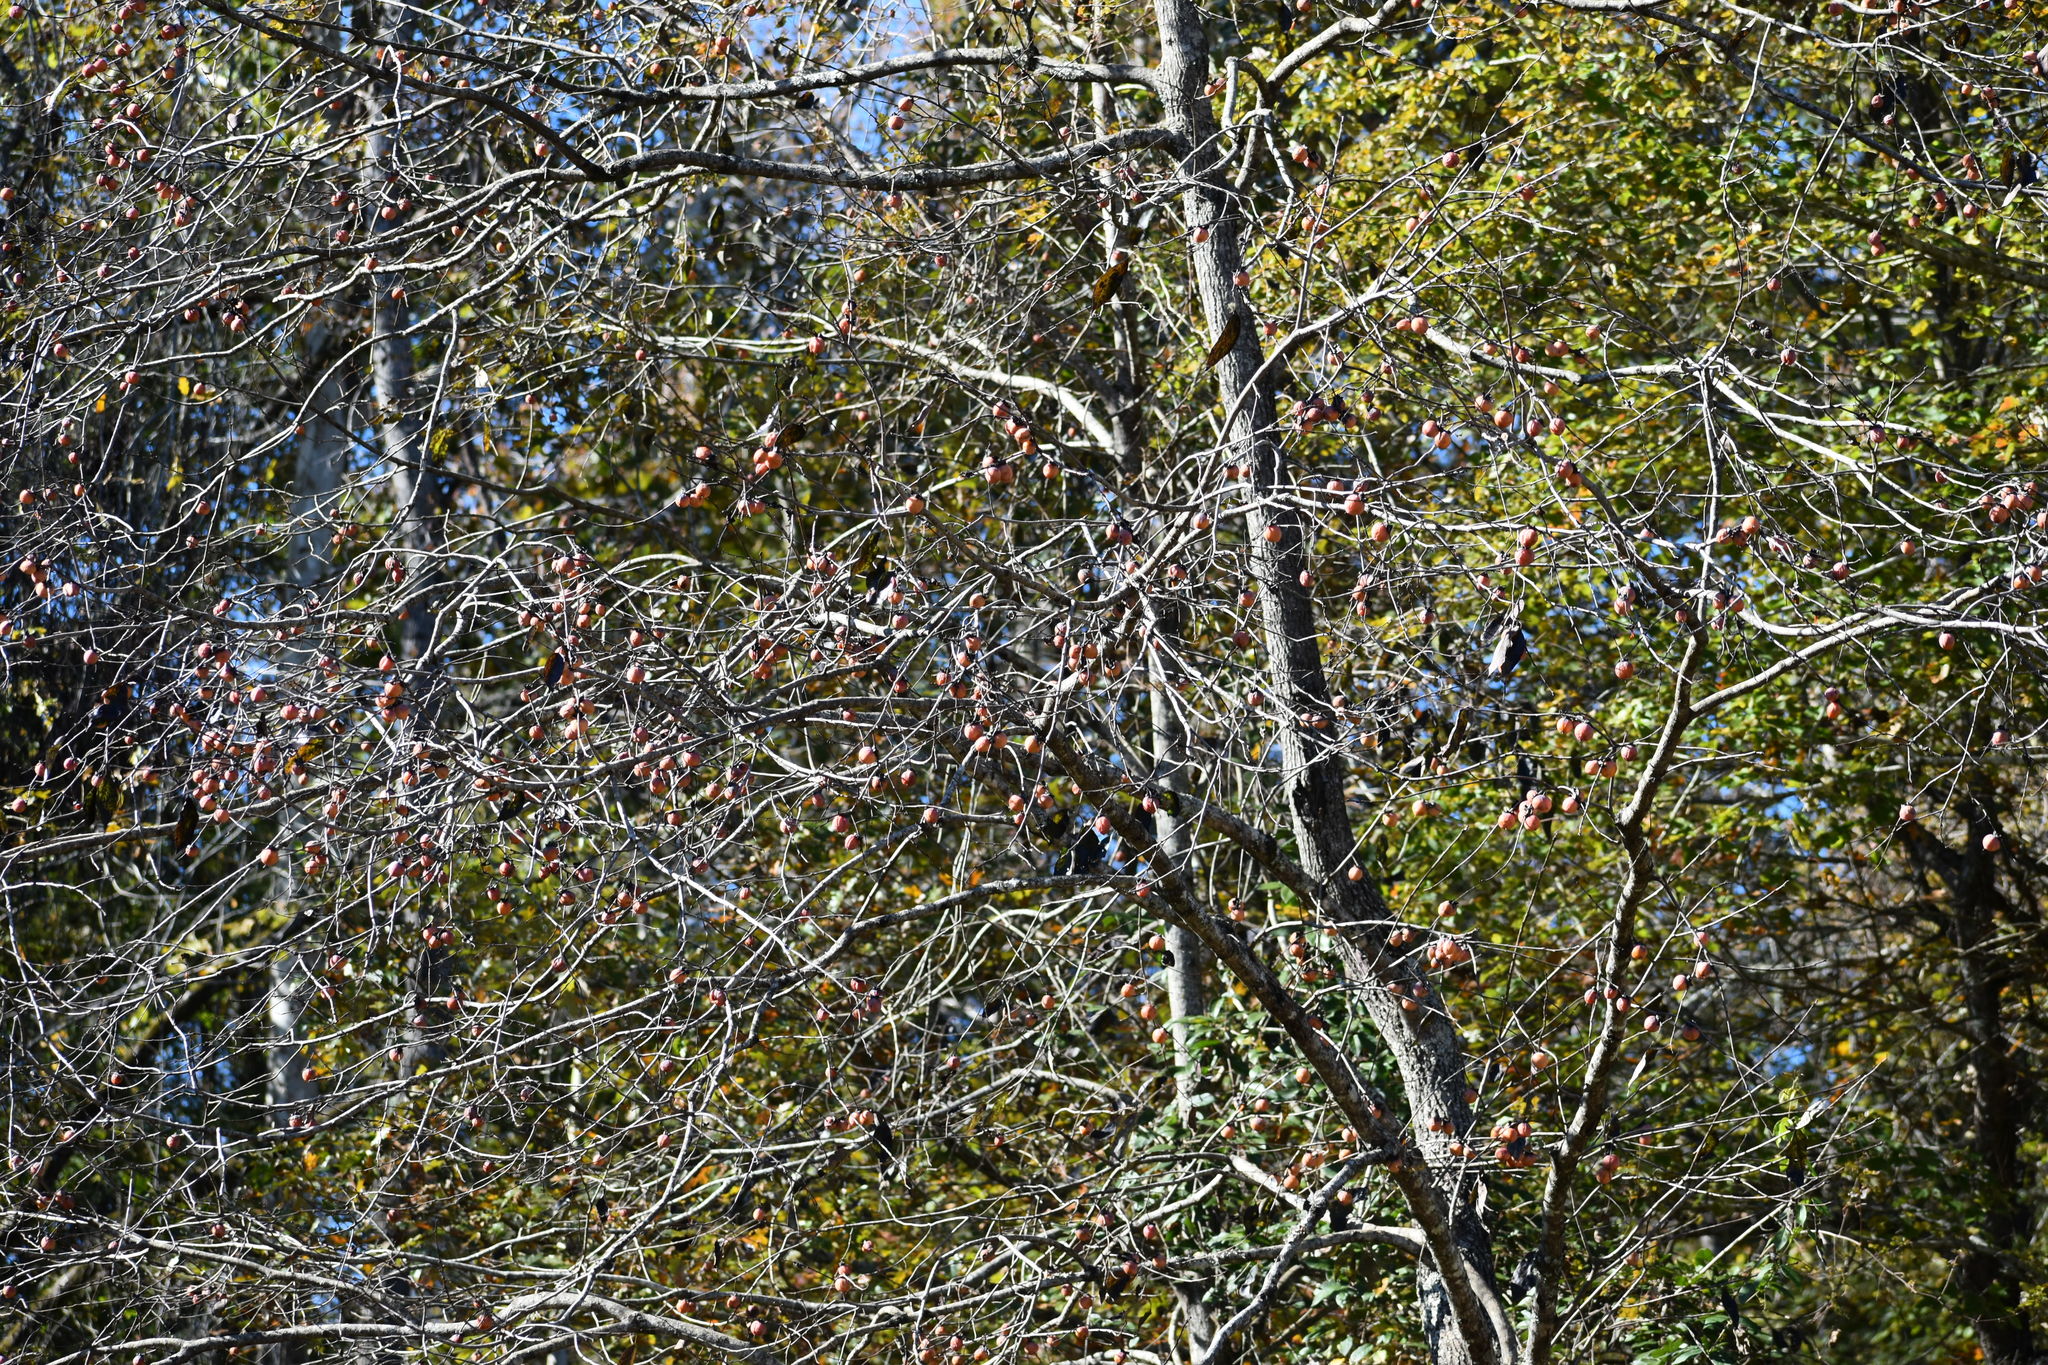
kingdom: Plantae
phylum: Tracheophyta
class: Magnoliopsida
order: Ericales
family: Ebenaceae
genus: Diospyros
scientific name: Diospyros virginiana
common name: Persimmon
